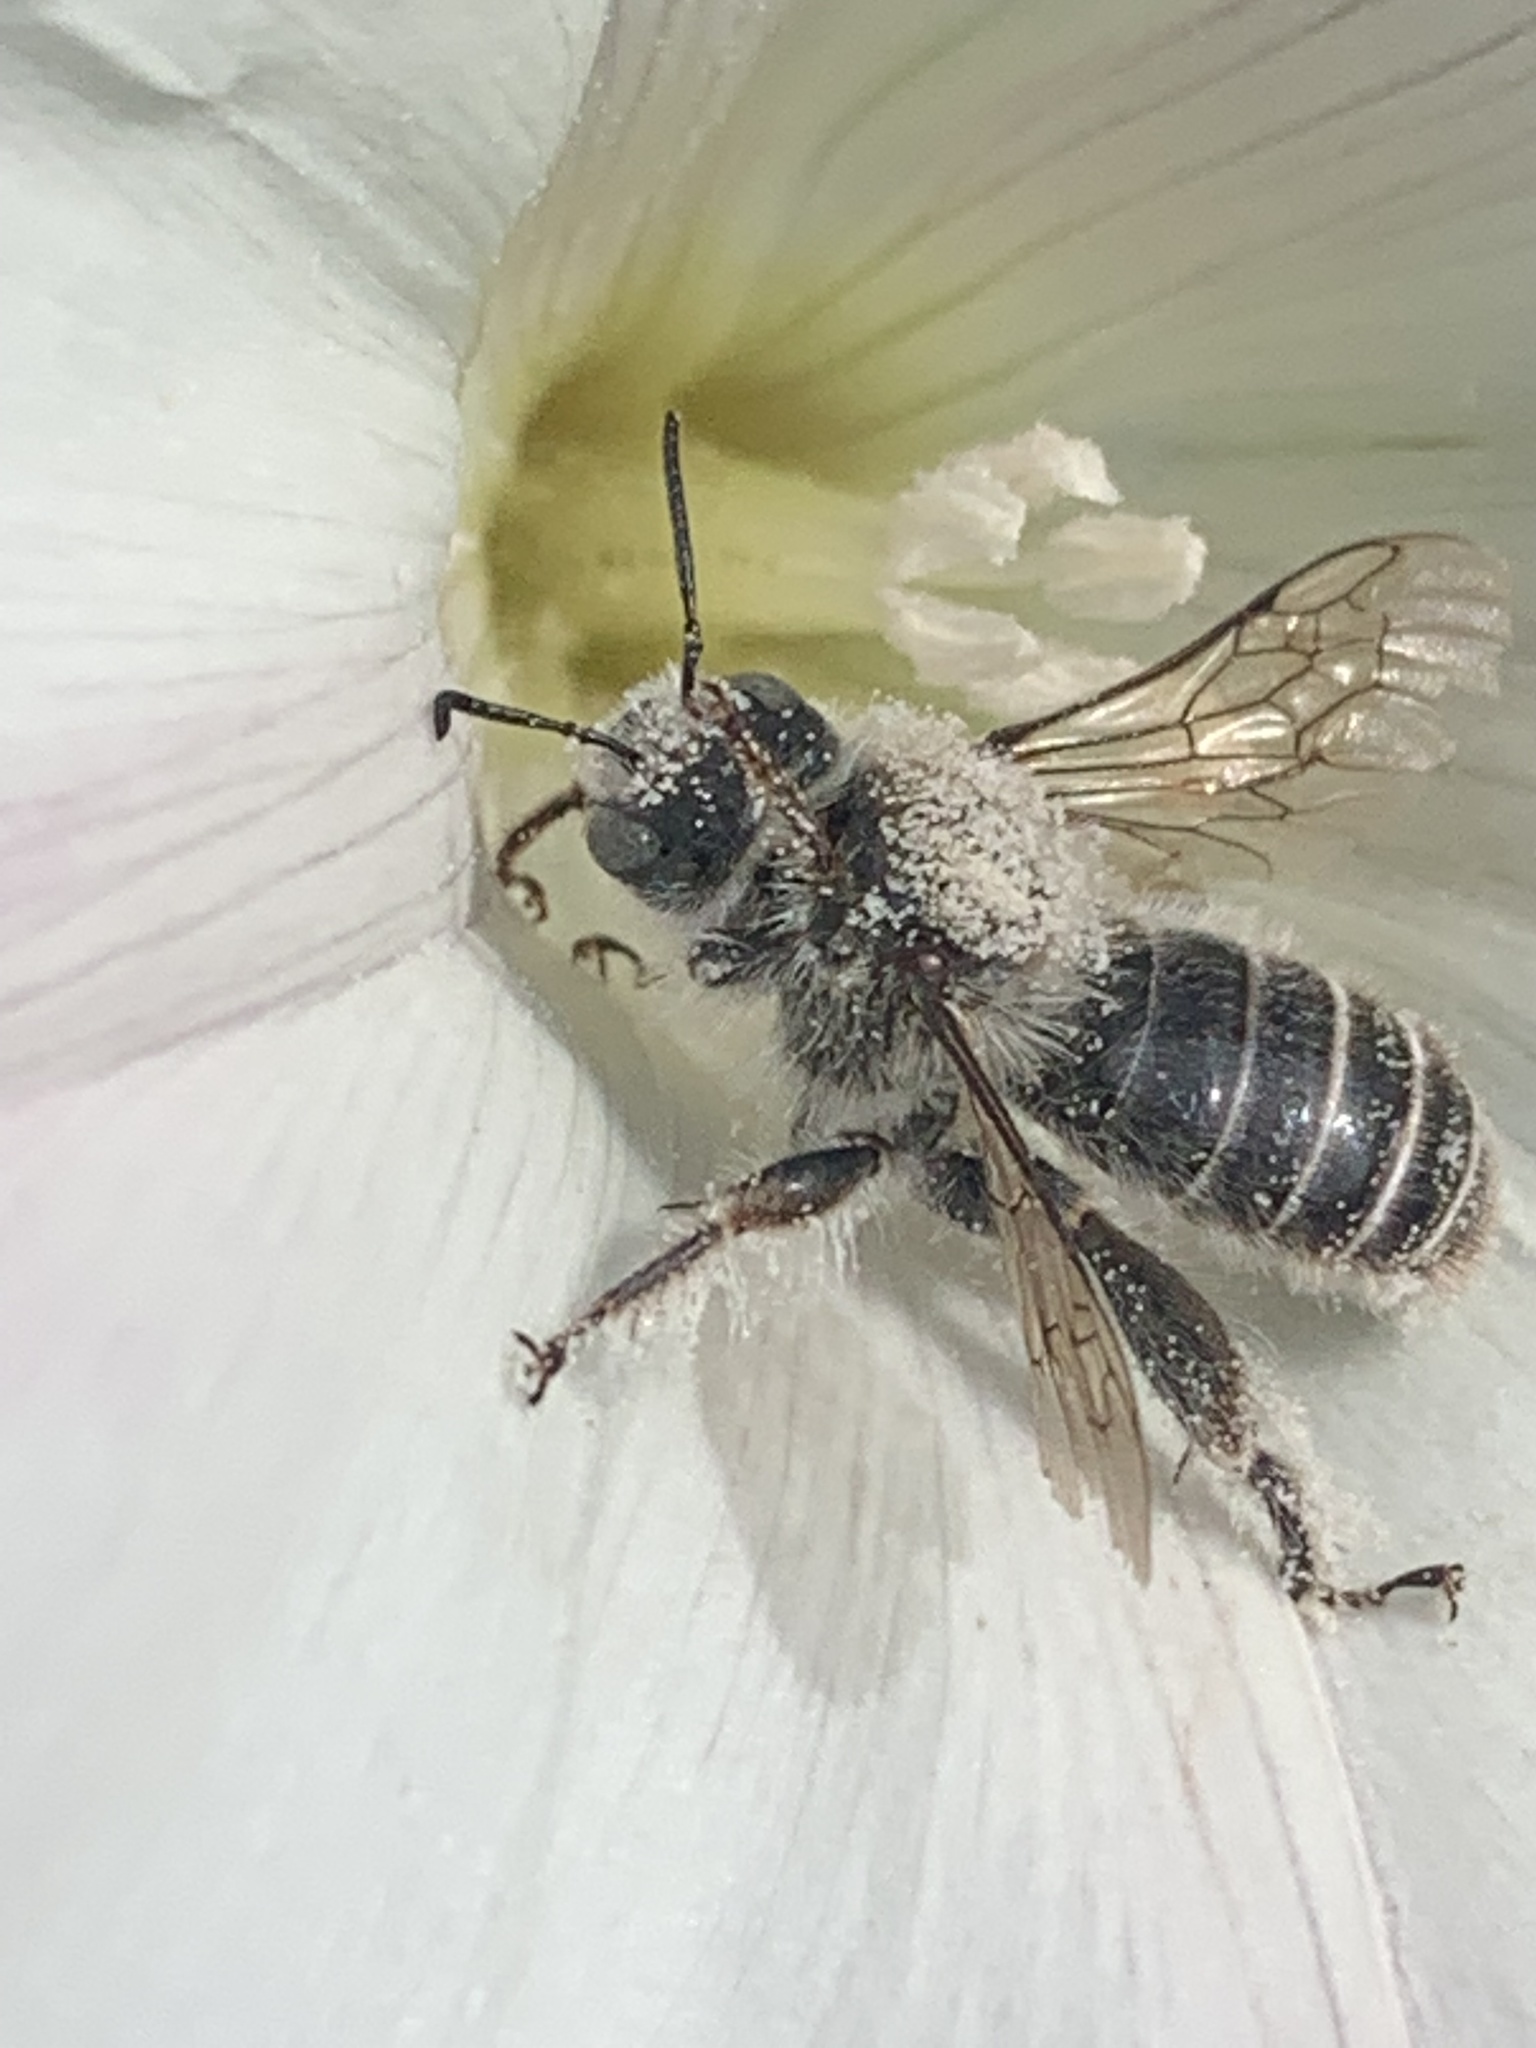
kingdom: Animalia
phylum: Arthropoda
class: Insecta
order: Hymenoptera
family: Apidae
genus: Diadasia
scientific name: Diadasia bituberculata
